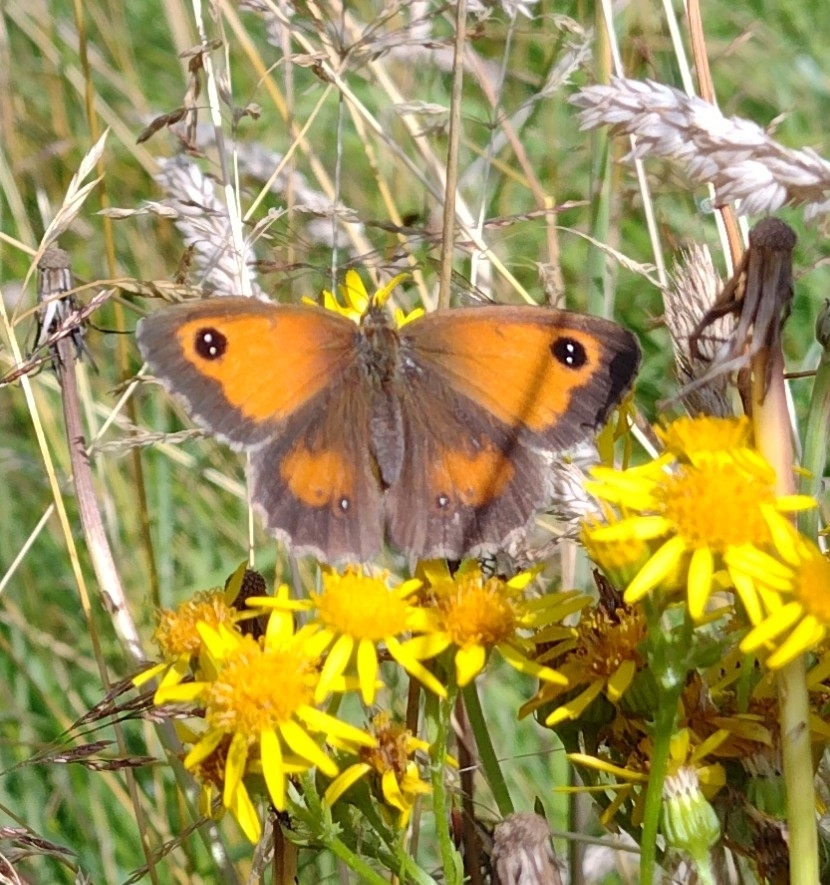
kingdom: Animalia
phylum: Arthropoda
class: Insecta
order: Lepidoptera
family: Nymphalidae
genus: Pyronia
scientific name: Pyronia tithonus
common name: Gatekeeper
